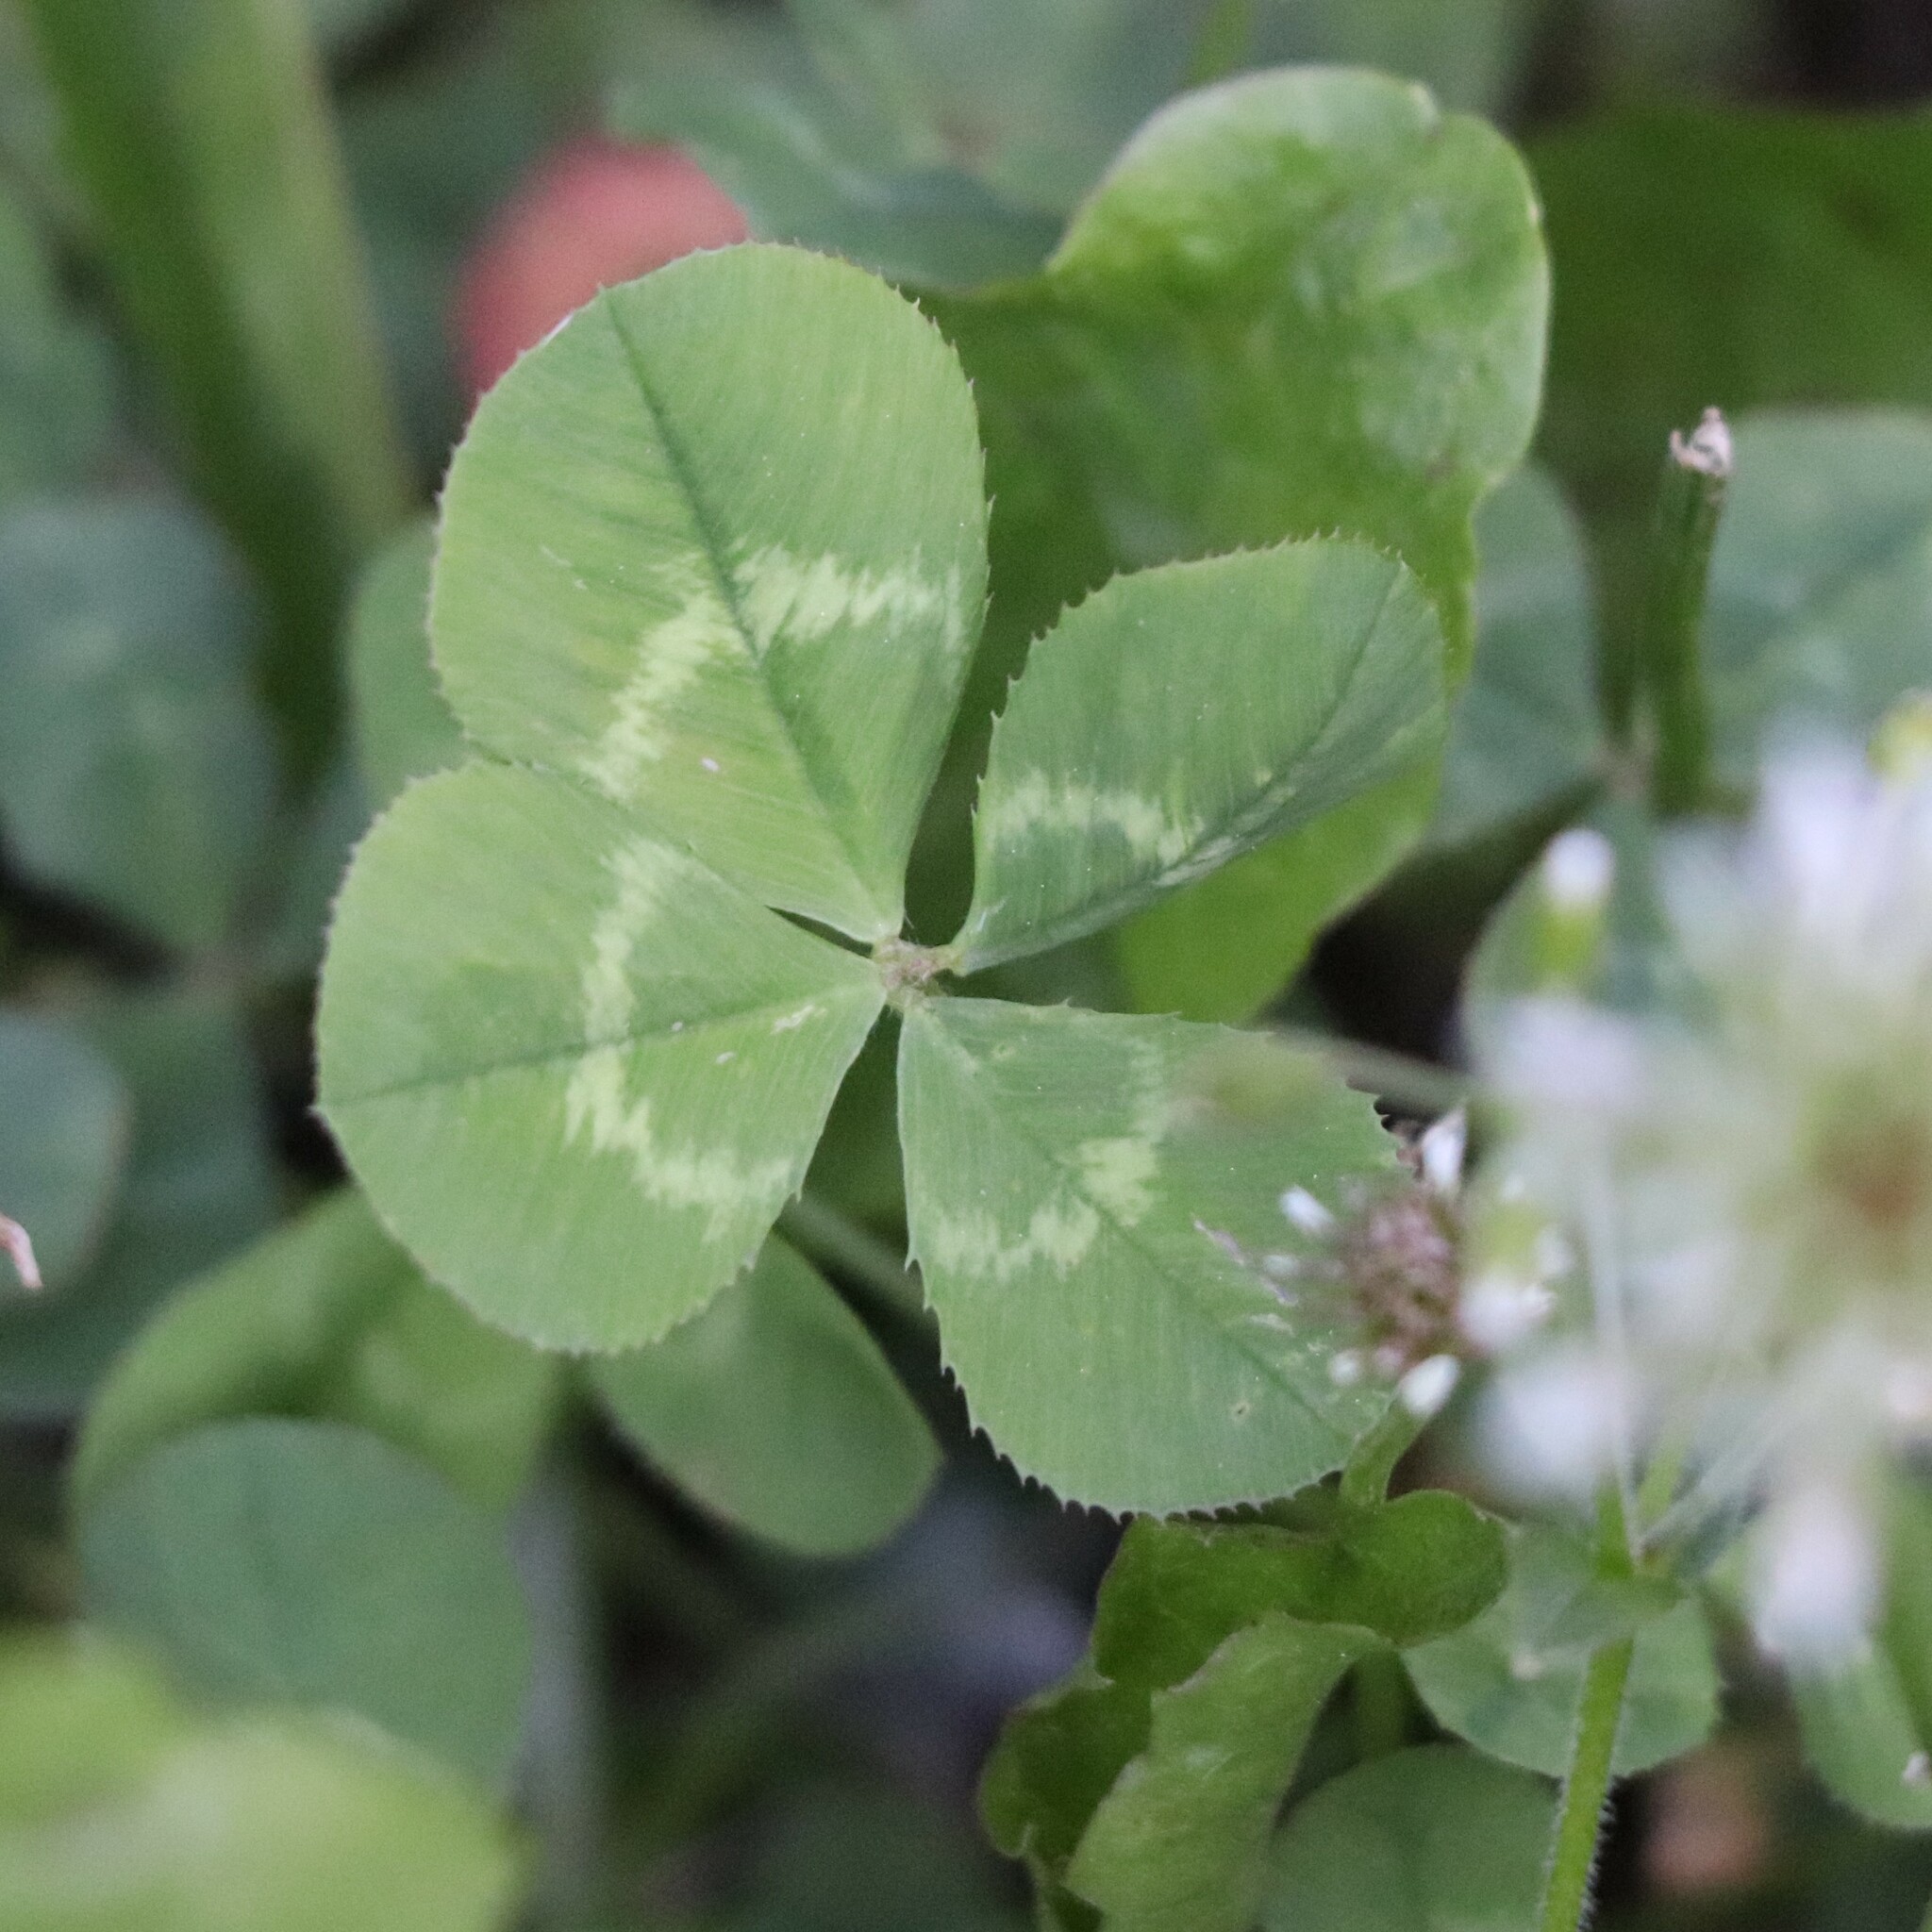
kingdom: Plantae
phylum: Tracheophyta
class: Magnoliopsida
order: Fabales
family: Fabaceae
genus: Trifolium
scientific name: Trifolium repens
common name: White clover
